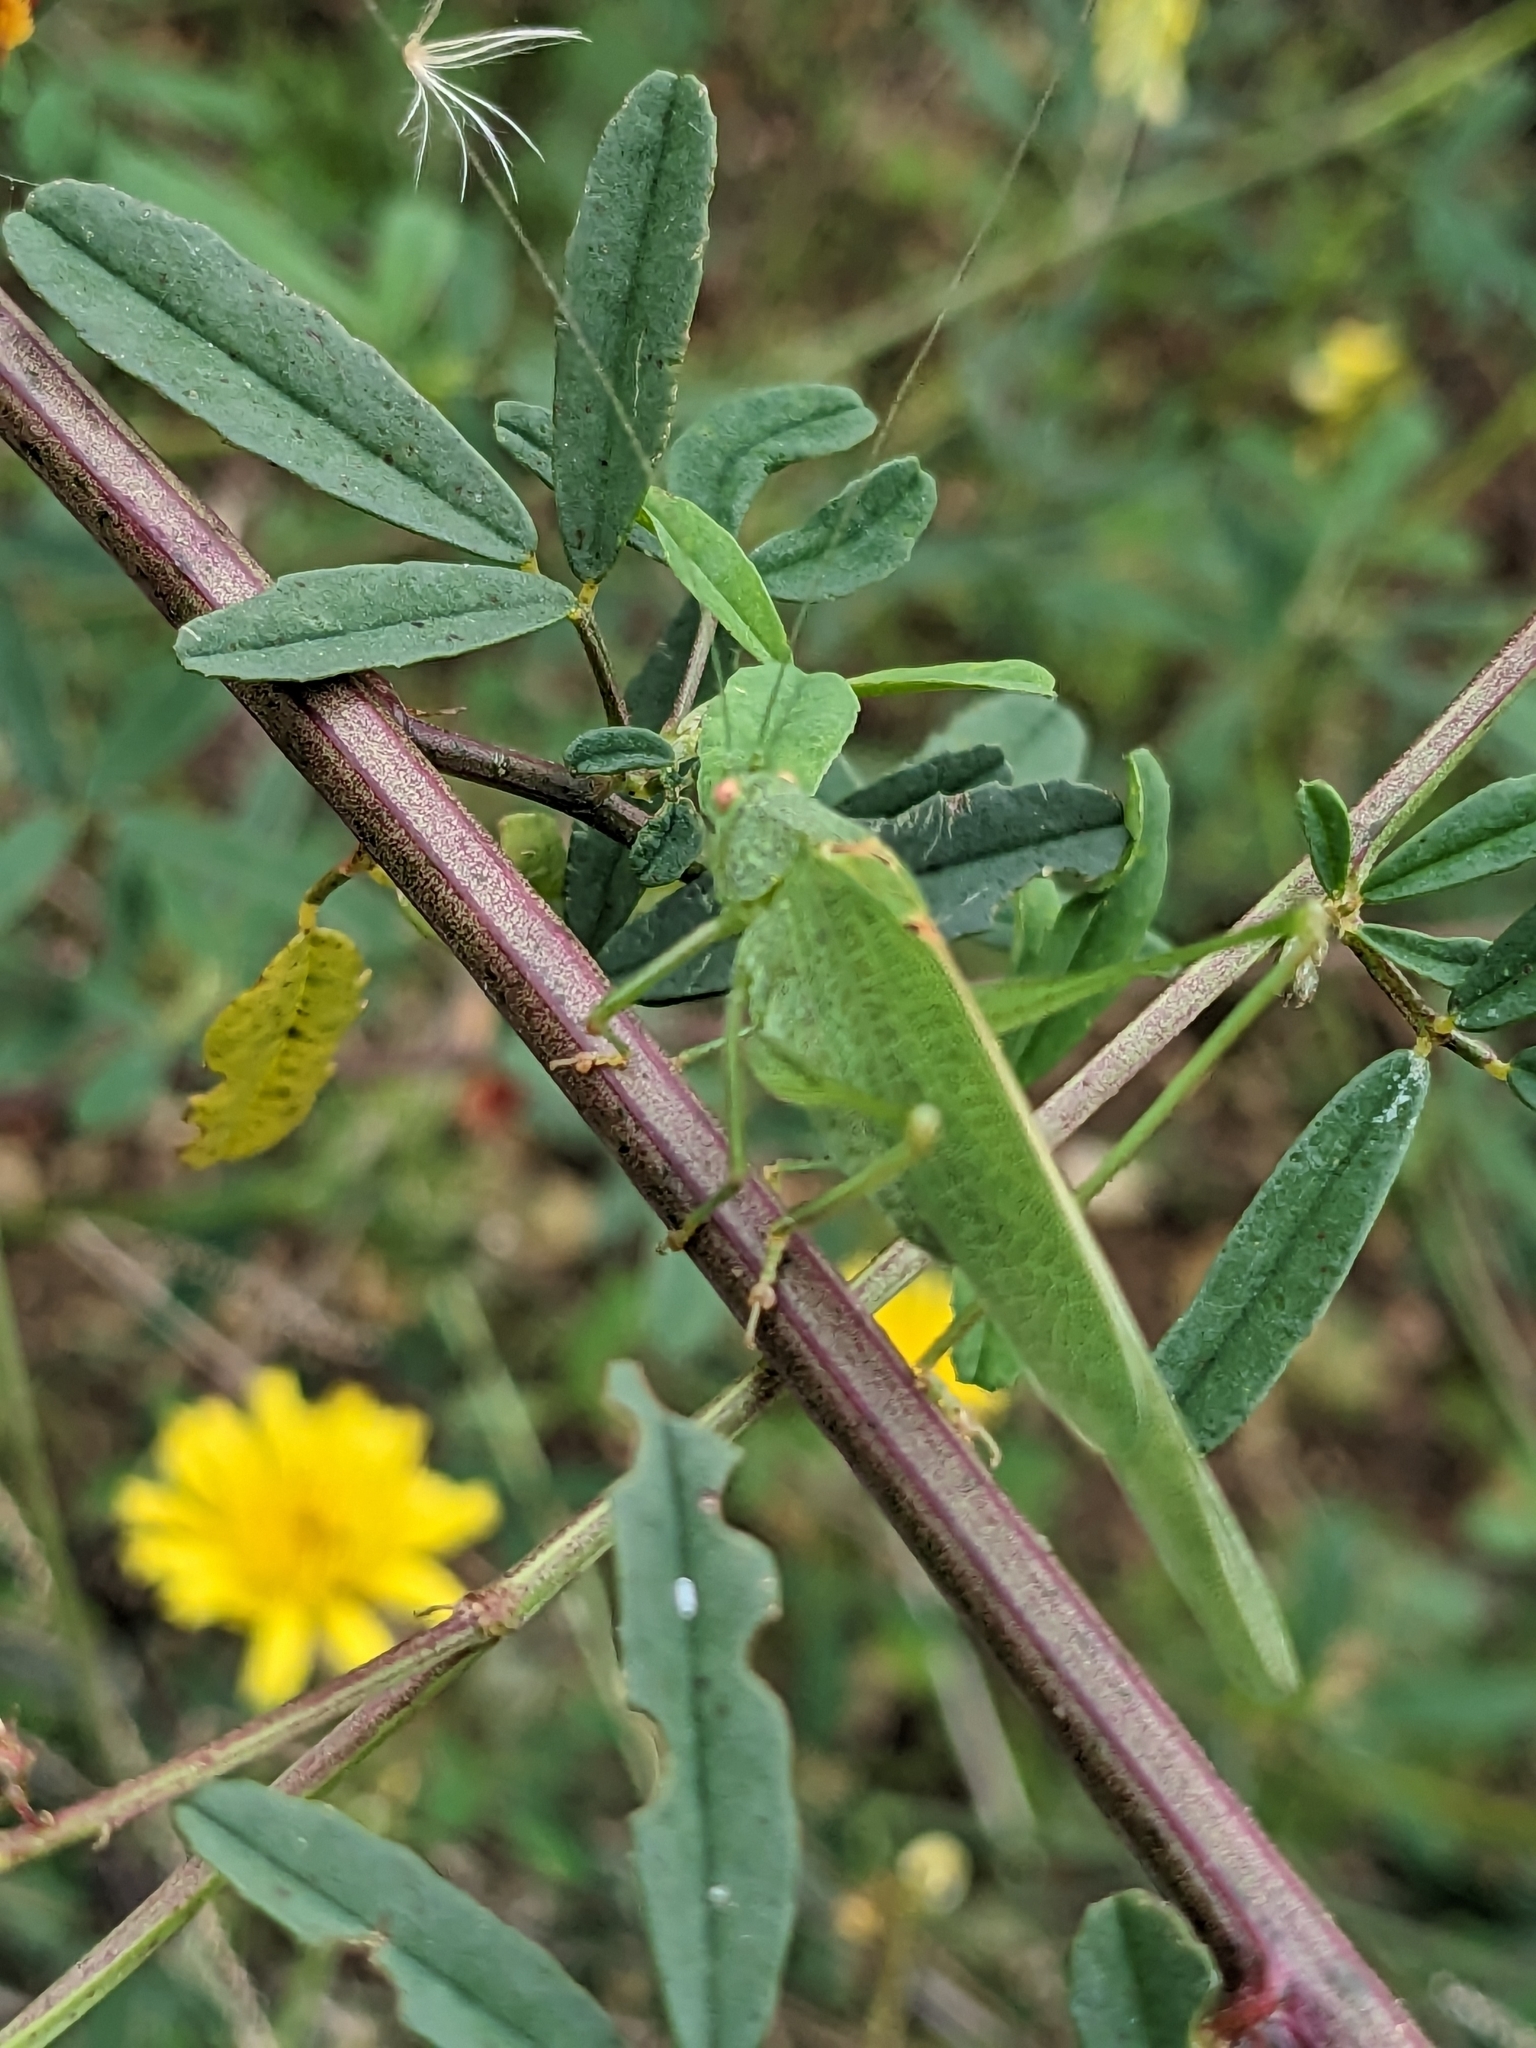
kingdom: Animalia
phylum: Arthropoda
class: Insecta
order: Orthoptera
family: Tettigoniidae
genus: Phaneroptera
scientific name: Phaneroptera nana
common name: Southern sickle bush-cricket
